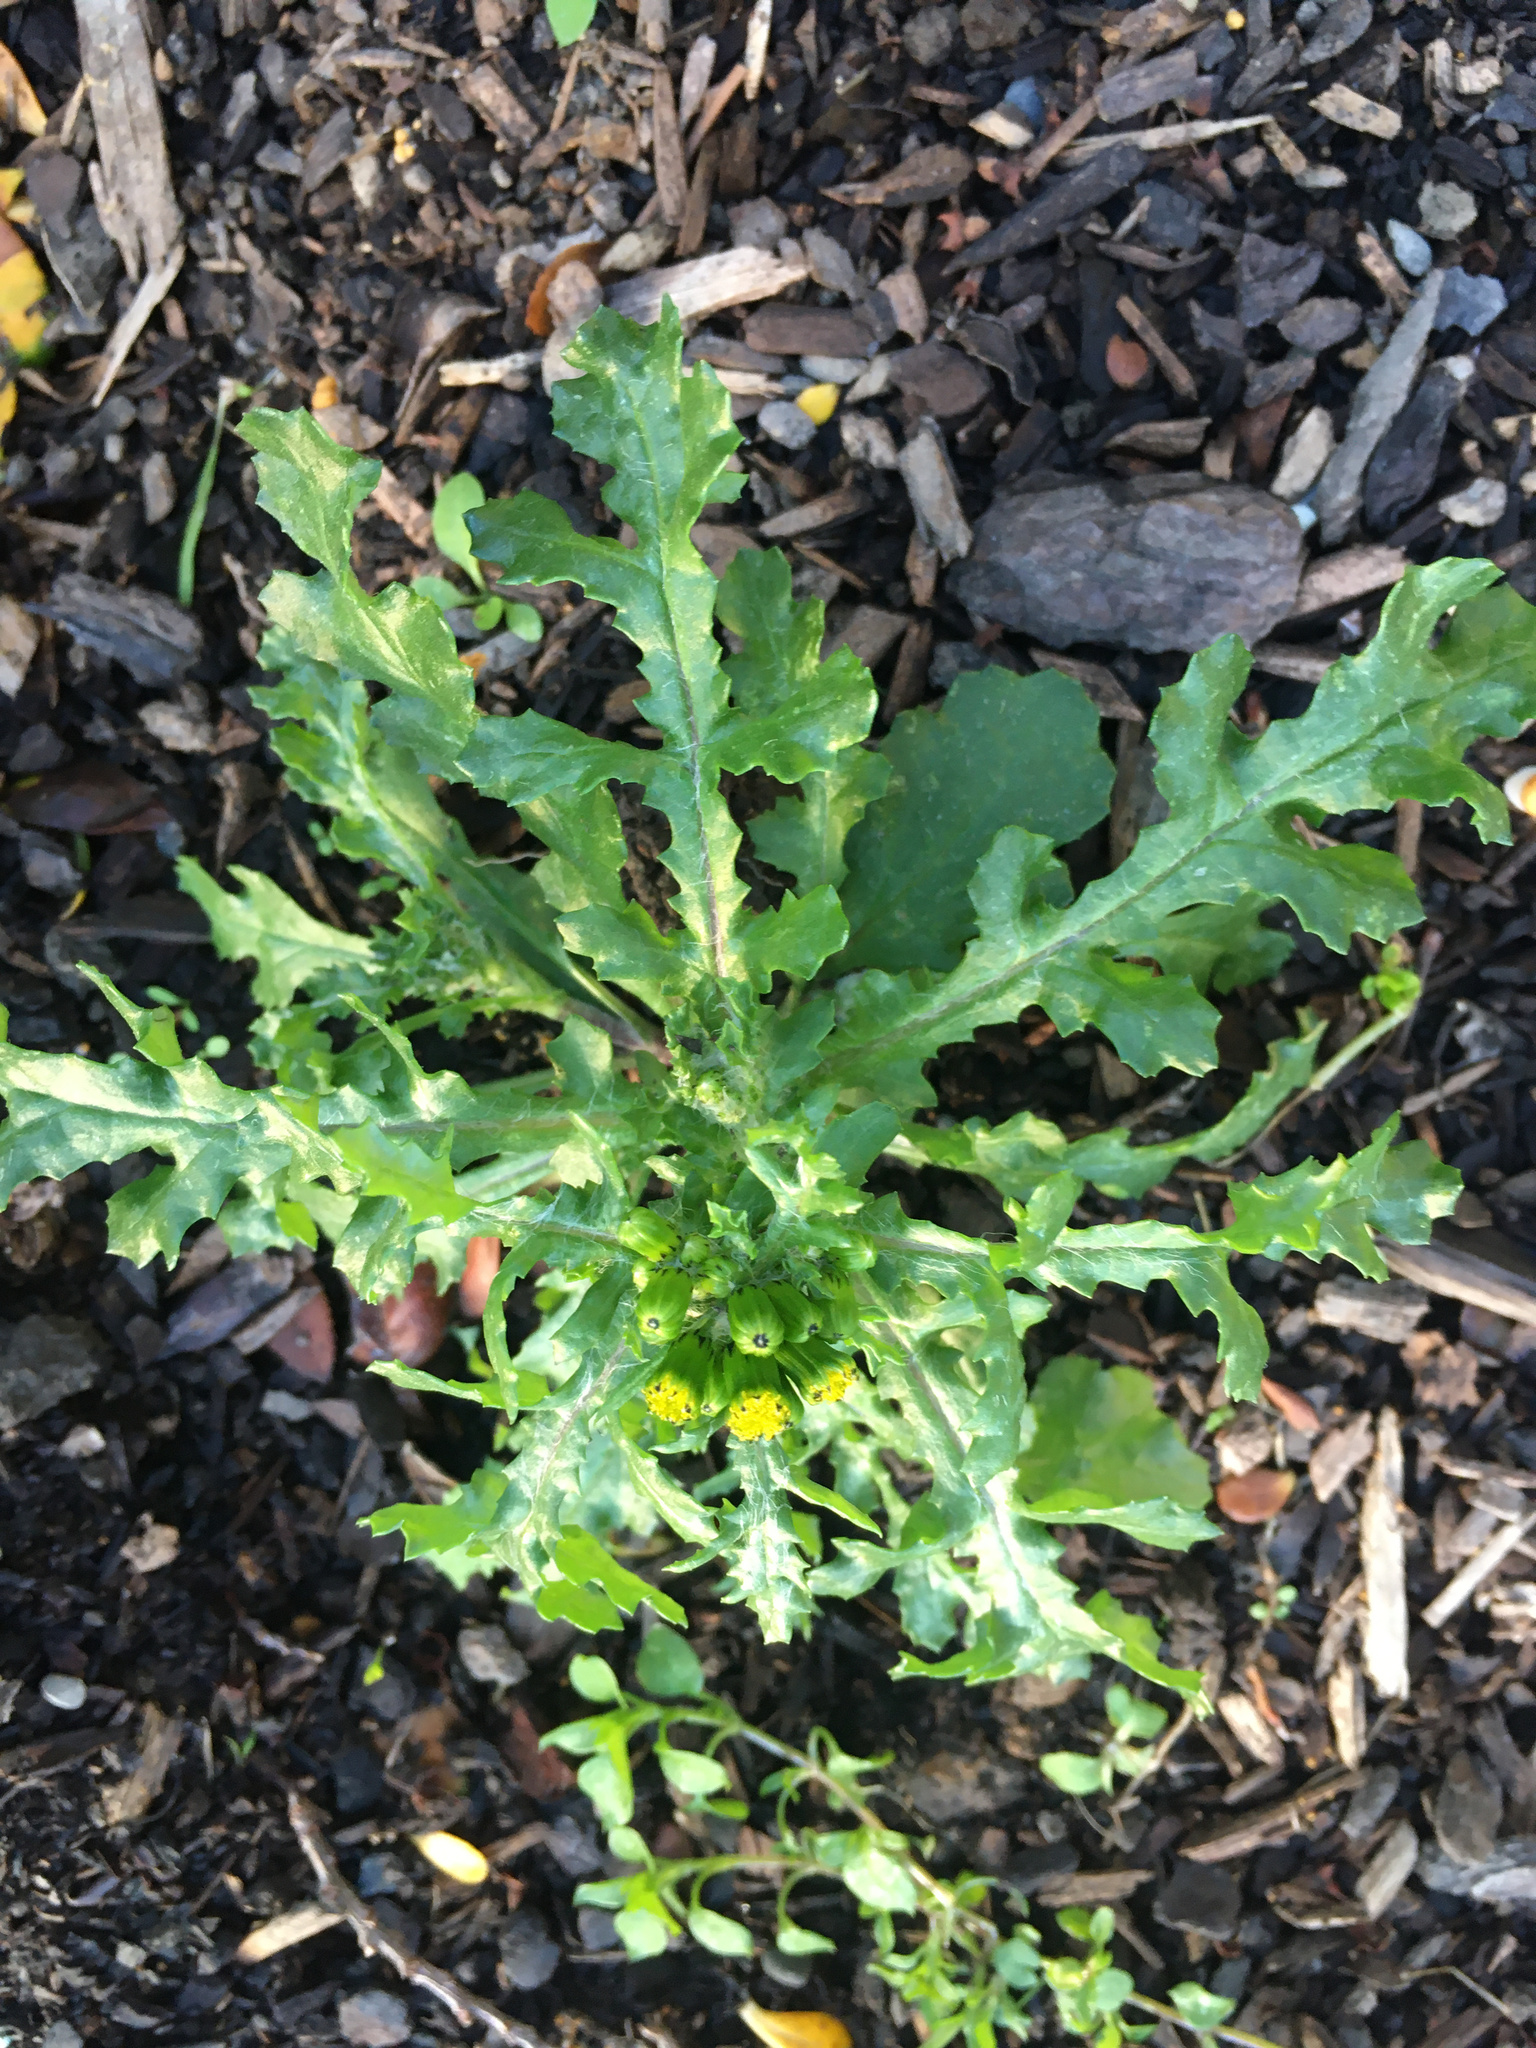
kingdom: Plantae
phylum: Tracheophyta
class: Magnoliopsida
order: Asterales
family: Asteraceae
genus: Senecio
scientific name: Senecio vulgaris
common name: Old-man-in-the-spring
